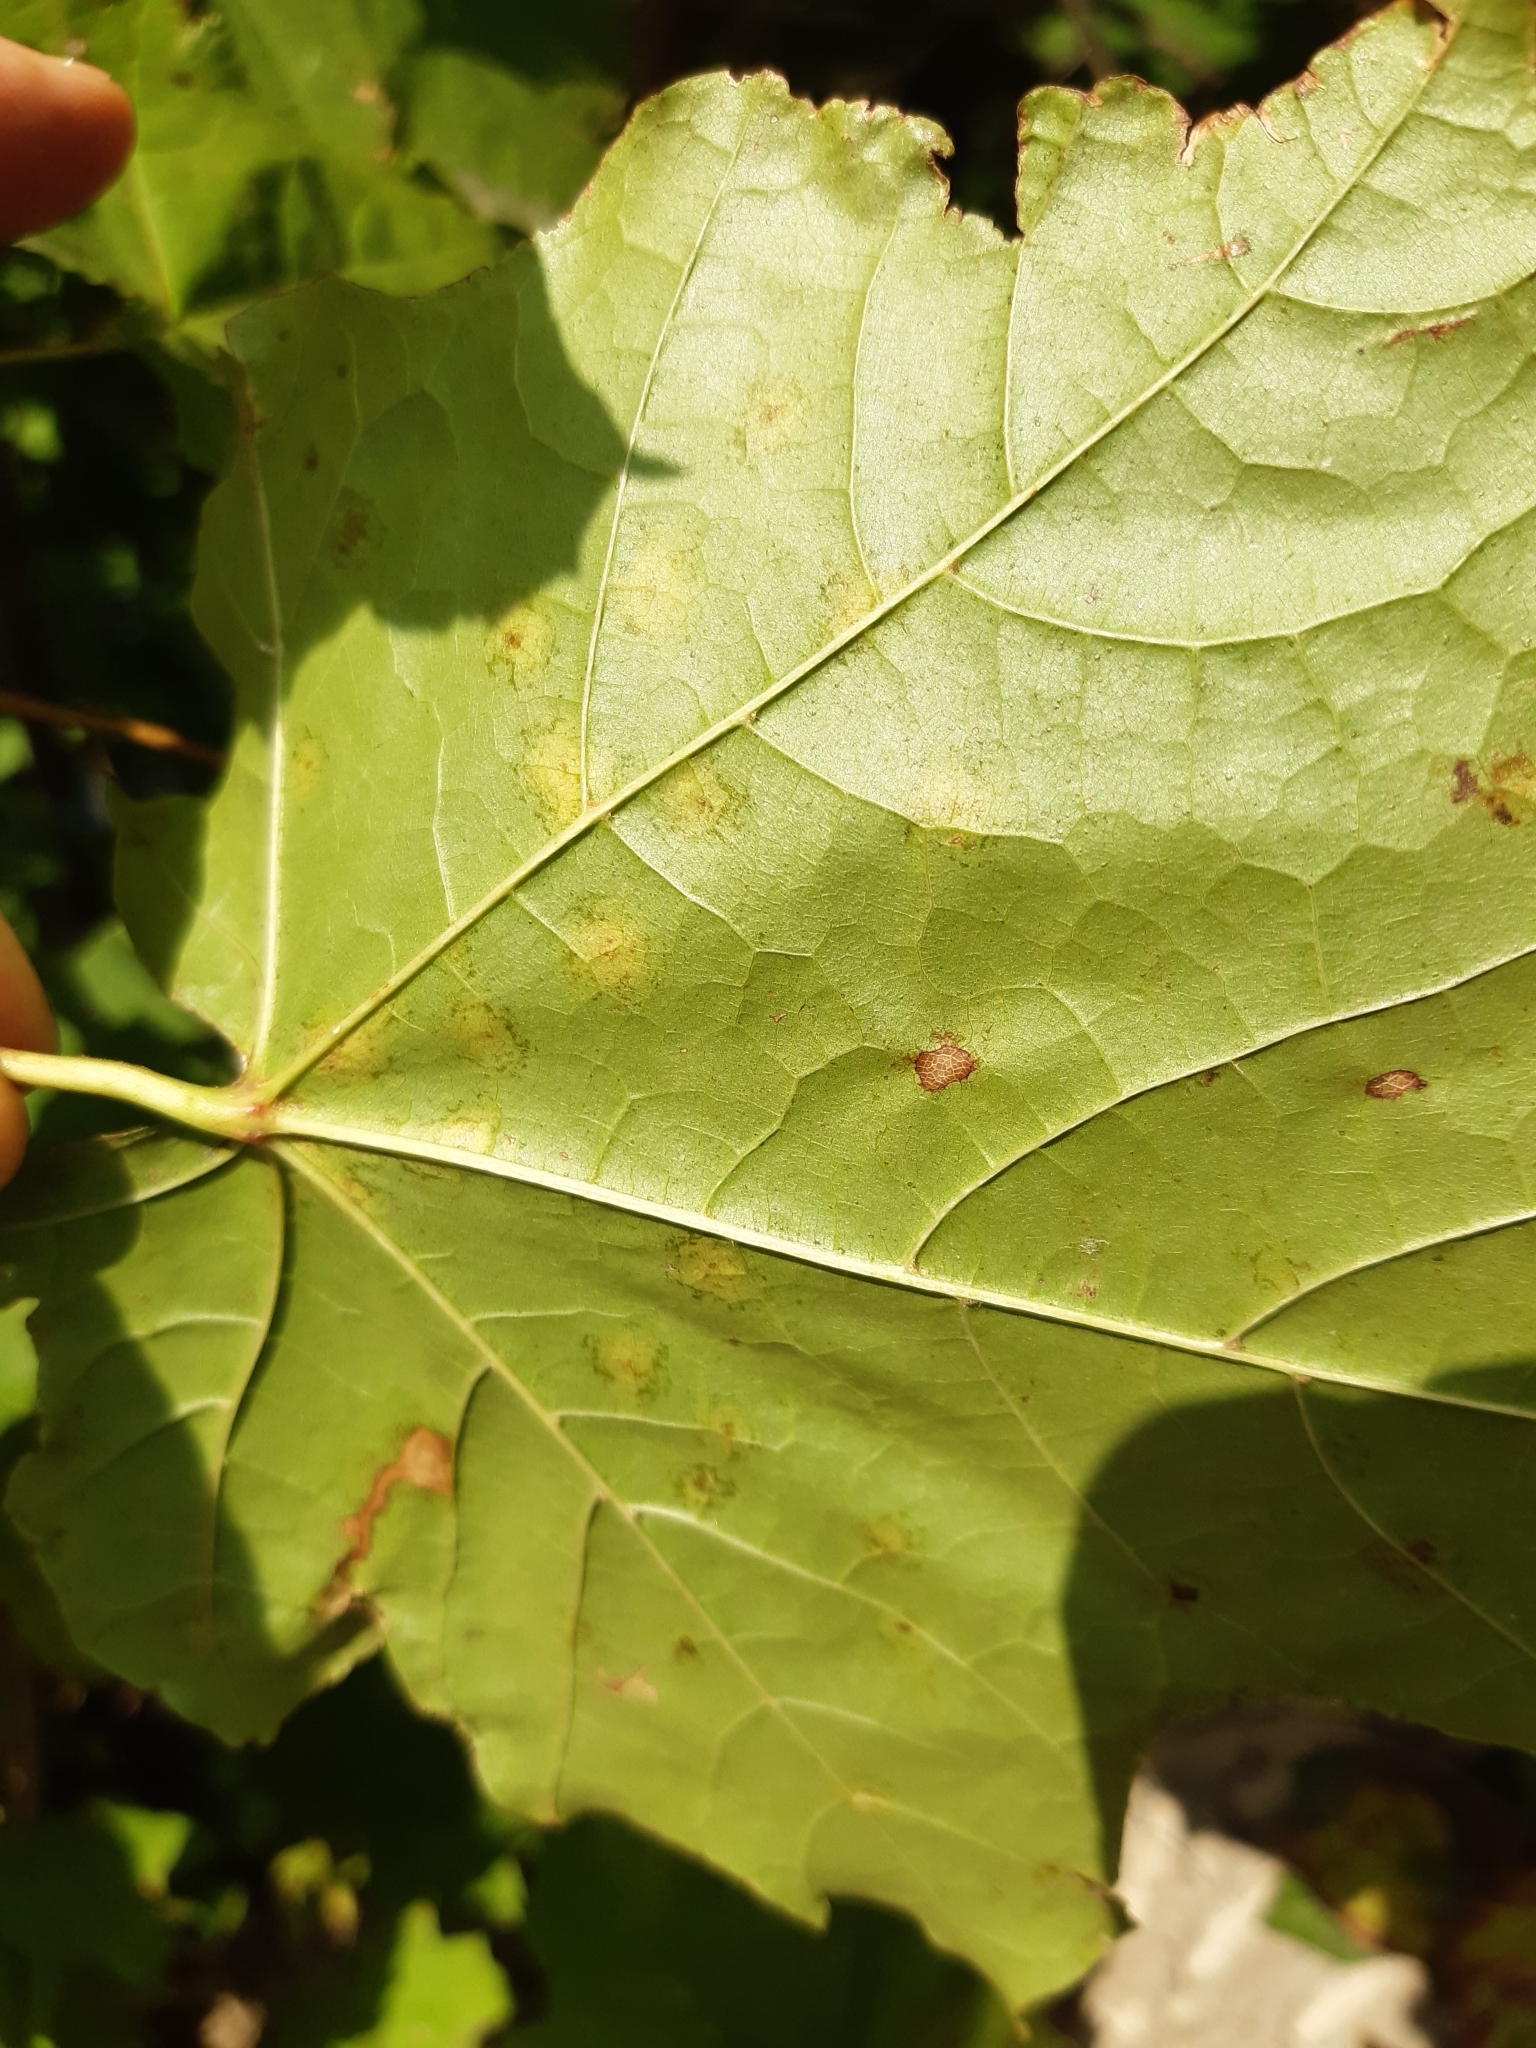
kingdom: Fungi
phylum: Ascomycota
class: Leotiomycetes
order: Helotiales
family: Erysiphaceae
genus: Sawadaea
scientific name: Sawadaea tulasnei
